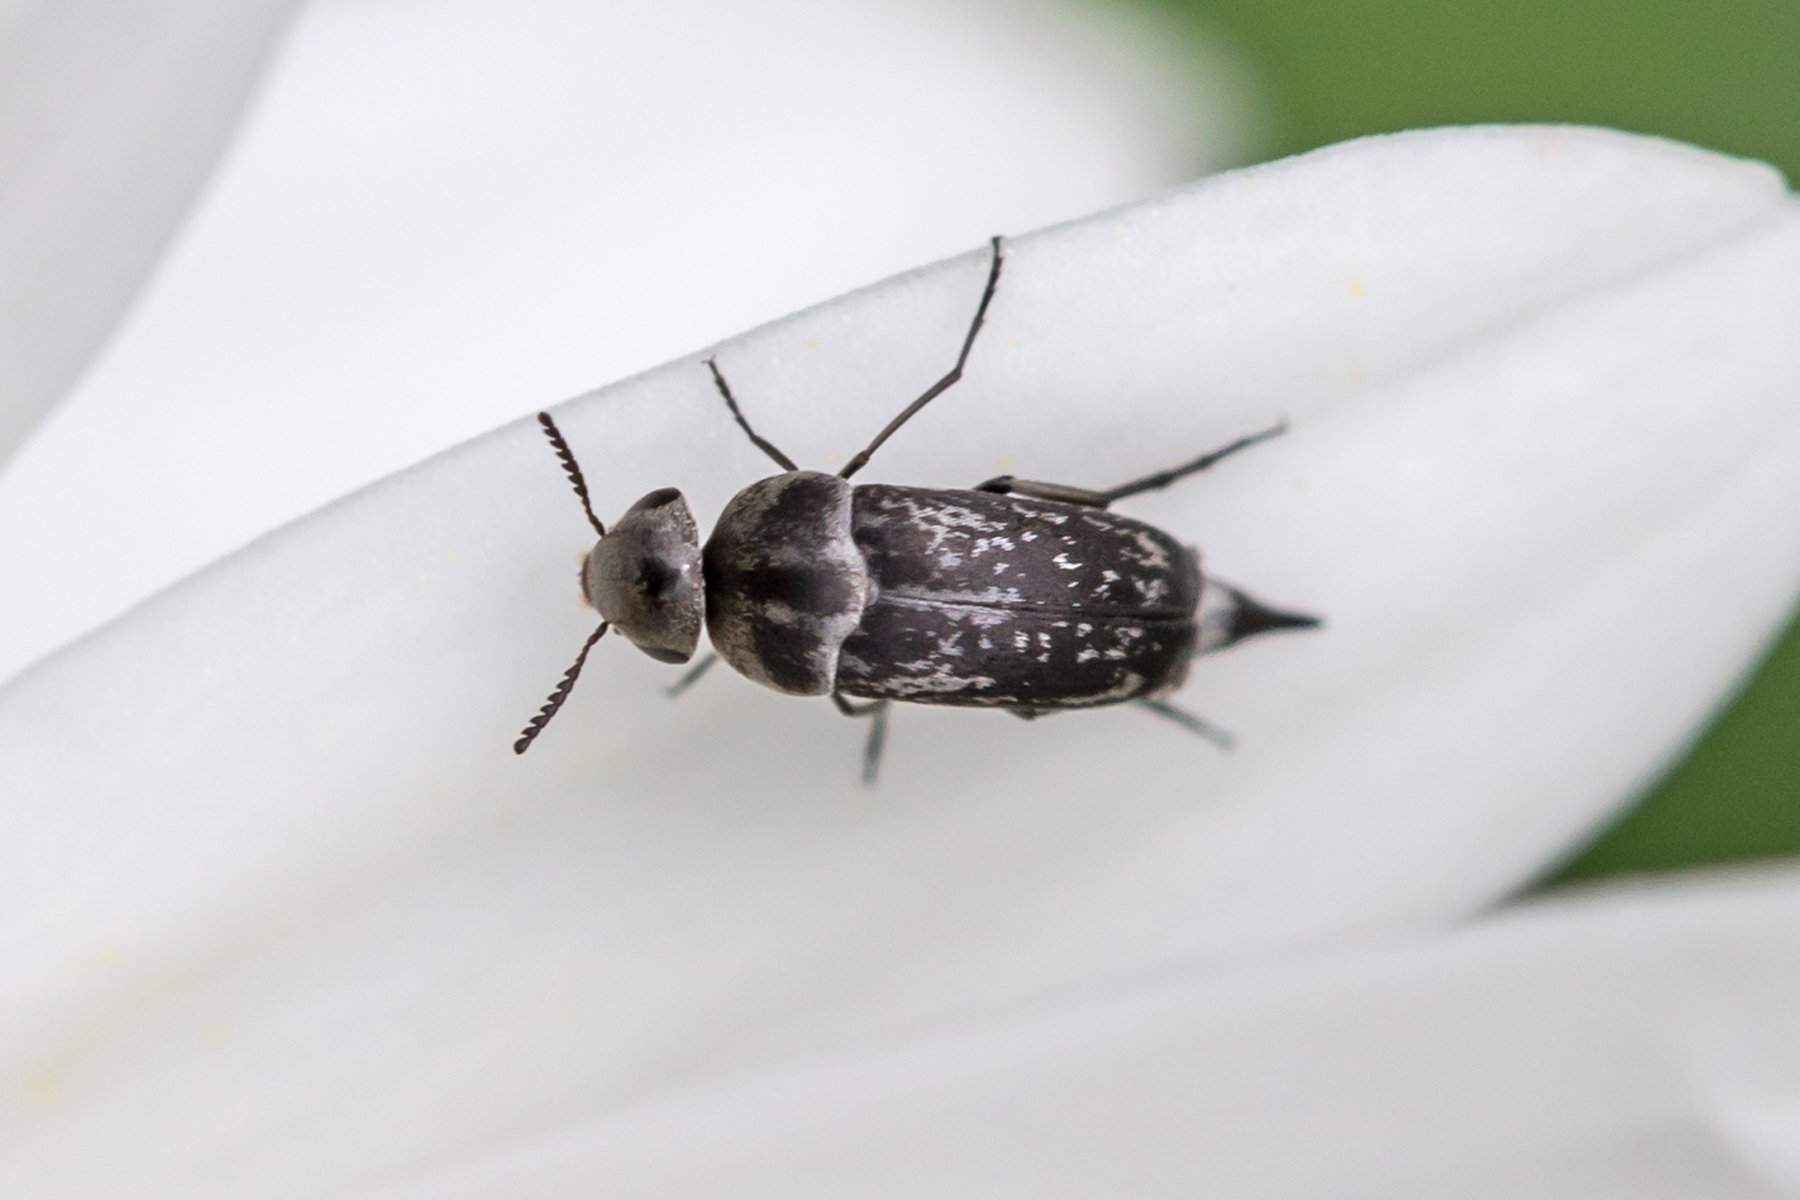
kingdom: Animalia
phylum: Arthropoda
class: Insecta
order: Coleoptera
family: Mordellidae
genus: Mordella
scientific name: Mordella marginata
